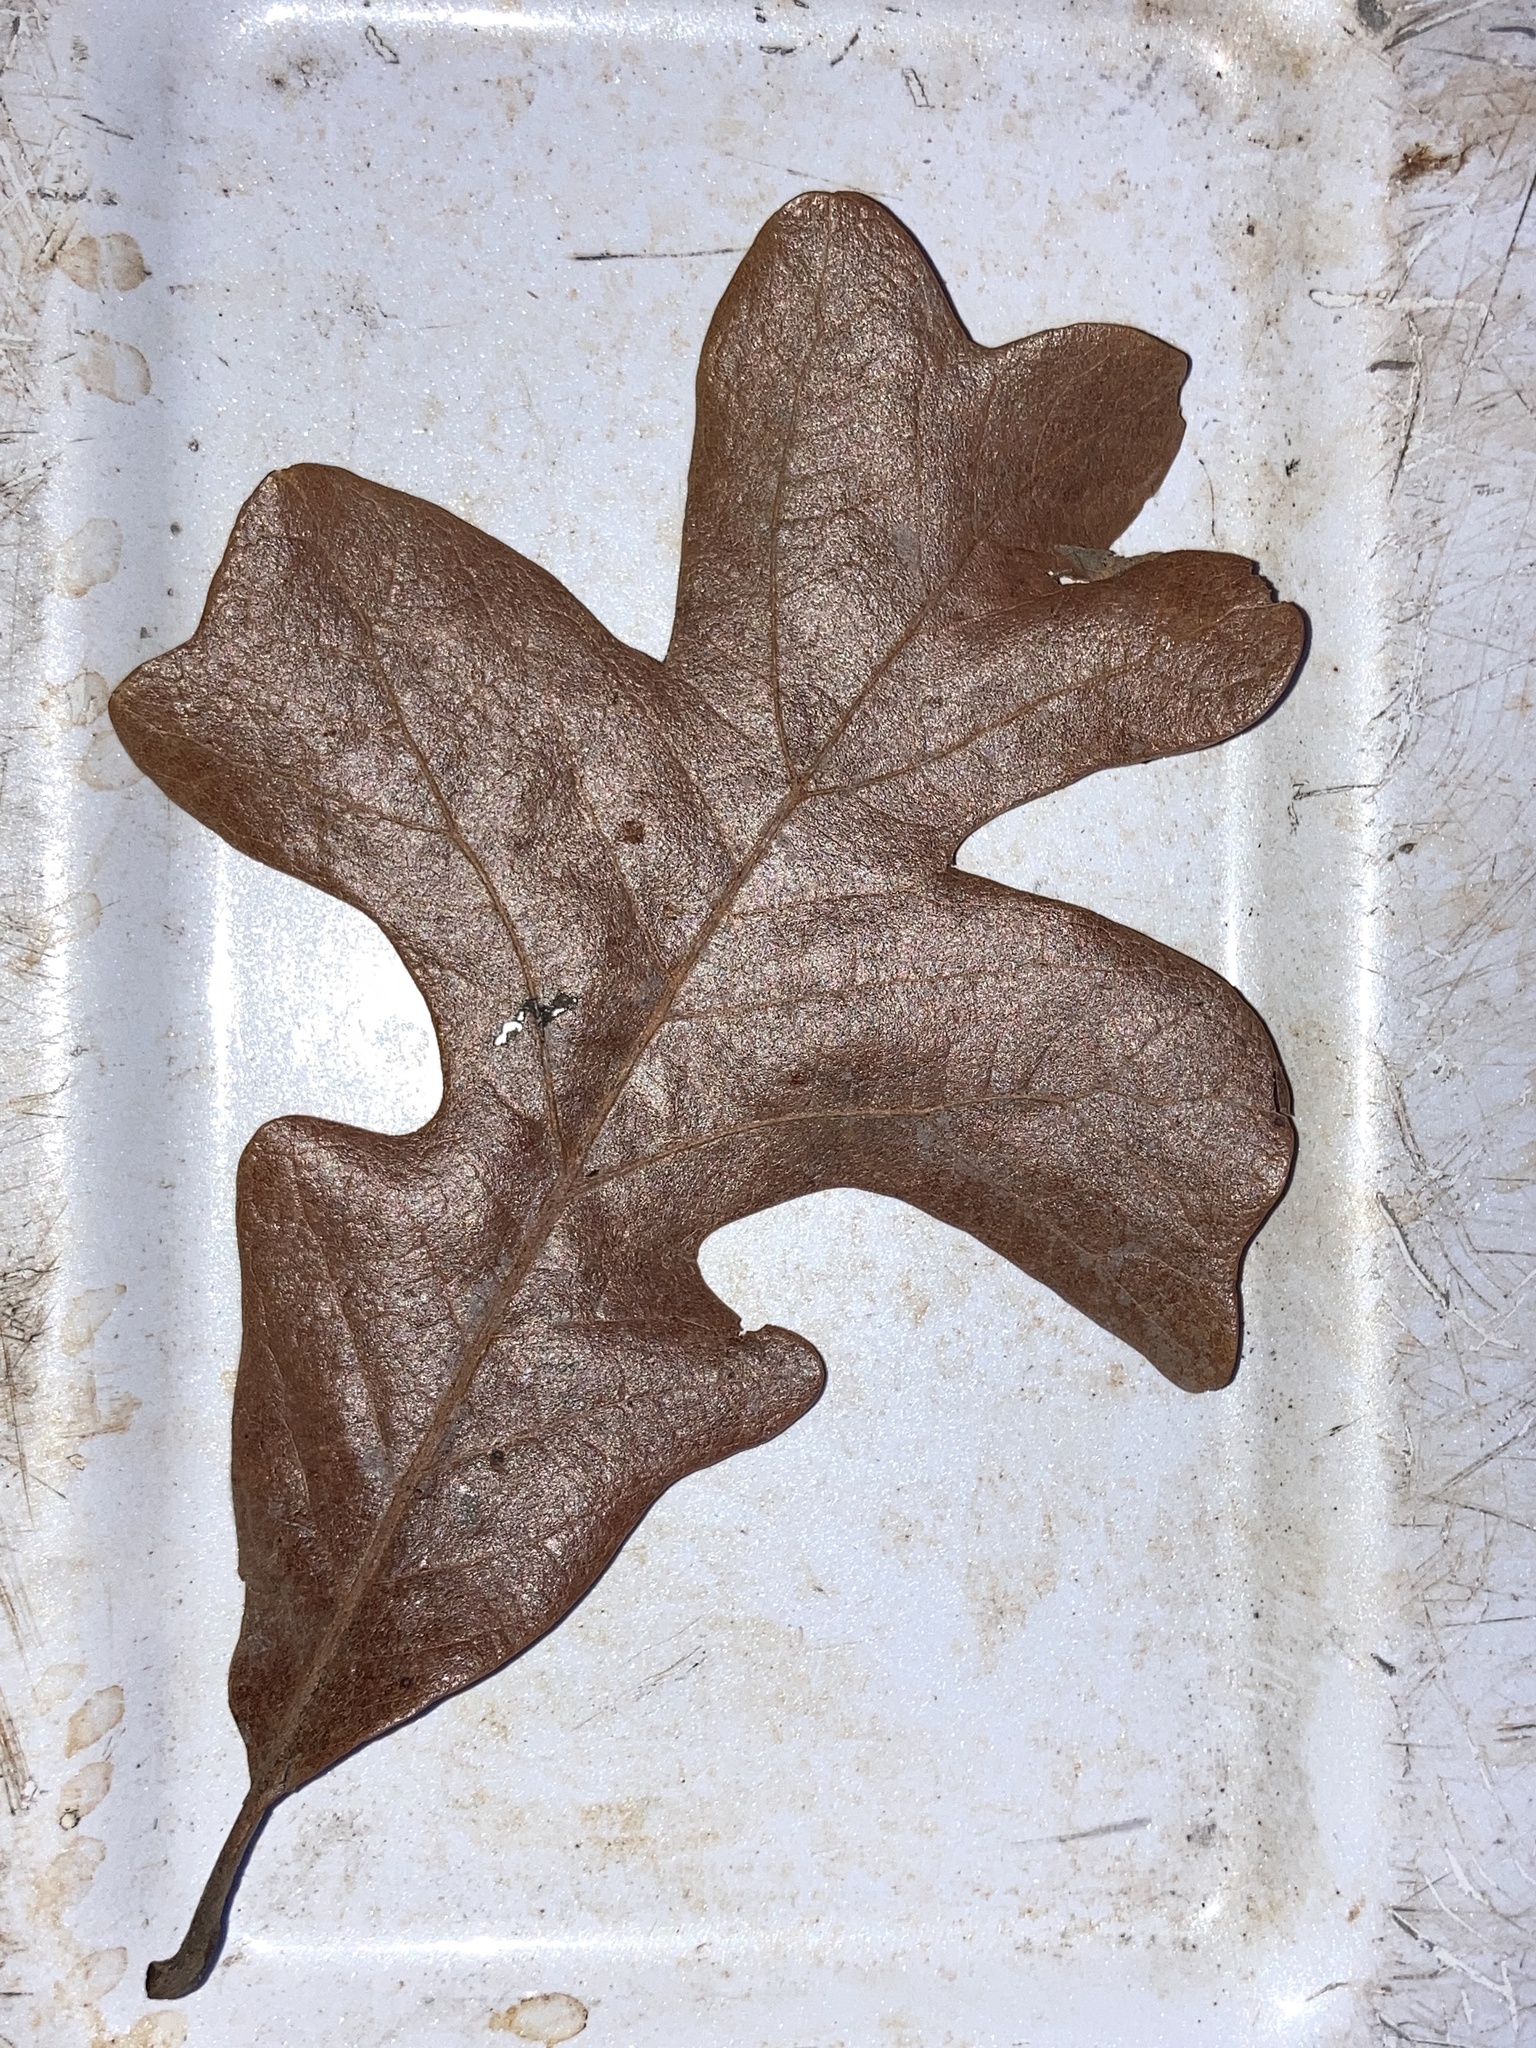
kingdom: Plantae
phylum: Tracheophyta
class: Magnoliopsida
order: Fagales
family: Fagaceae
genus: Quercus
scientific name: Quercus stellata
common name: Post oak
